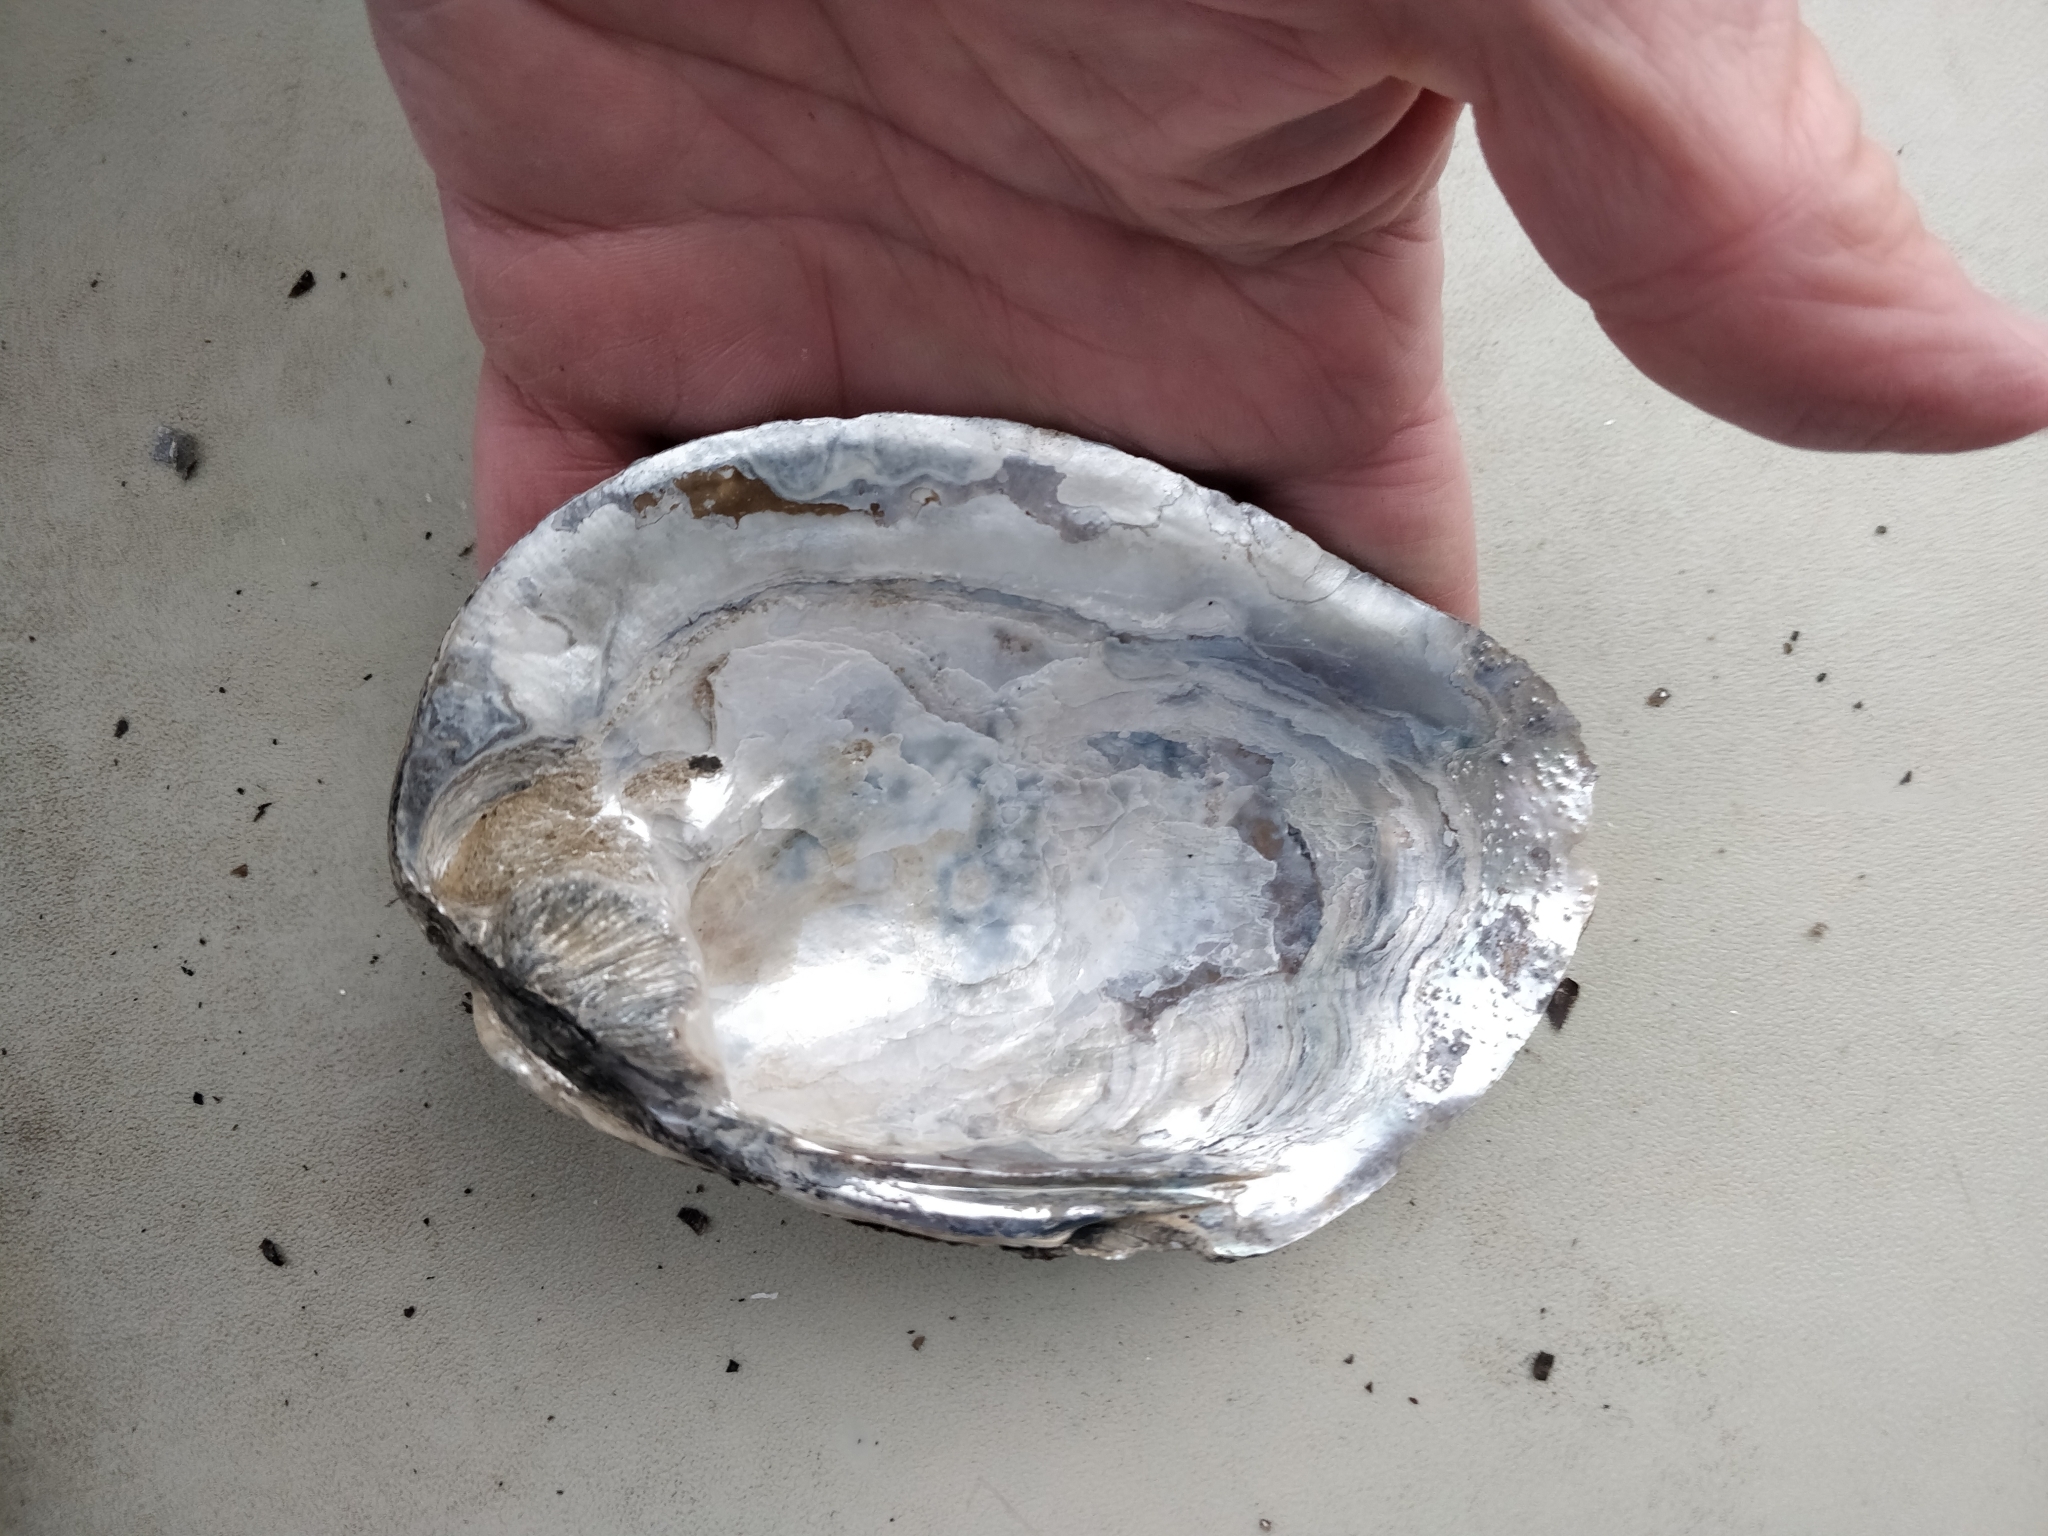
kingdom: Animalia
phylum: Mollusca
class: Bivalvia
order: Unionida
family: Unionidae
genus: Amblema
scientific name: Amblema plicata
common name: Threeridge
